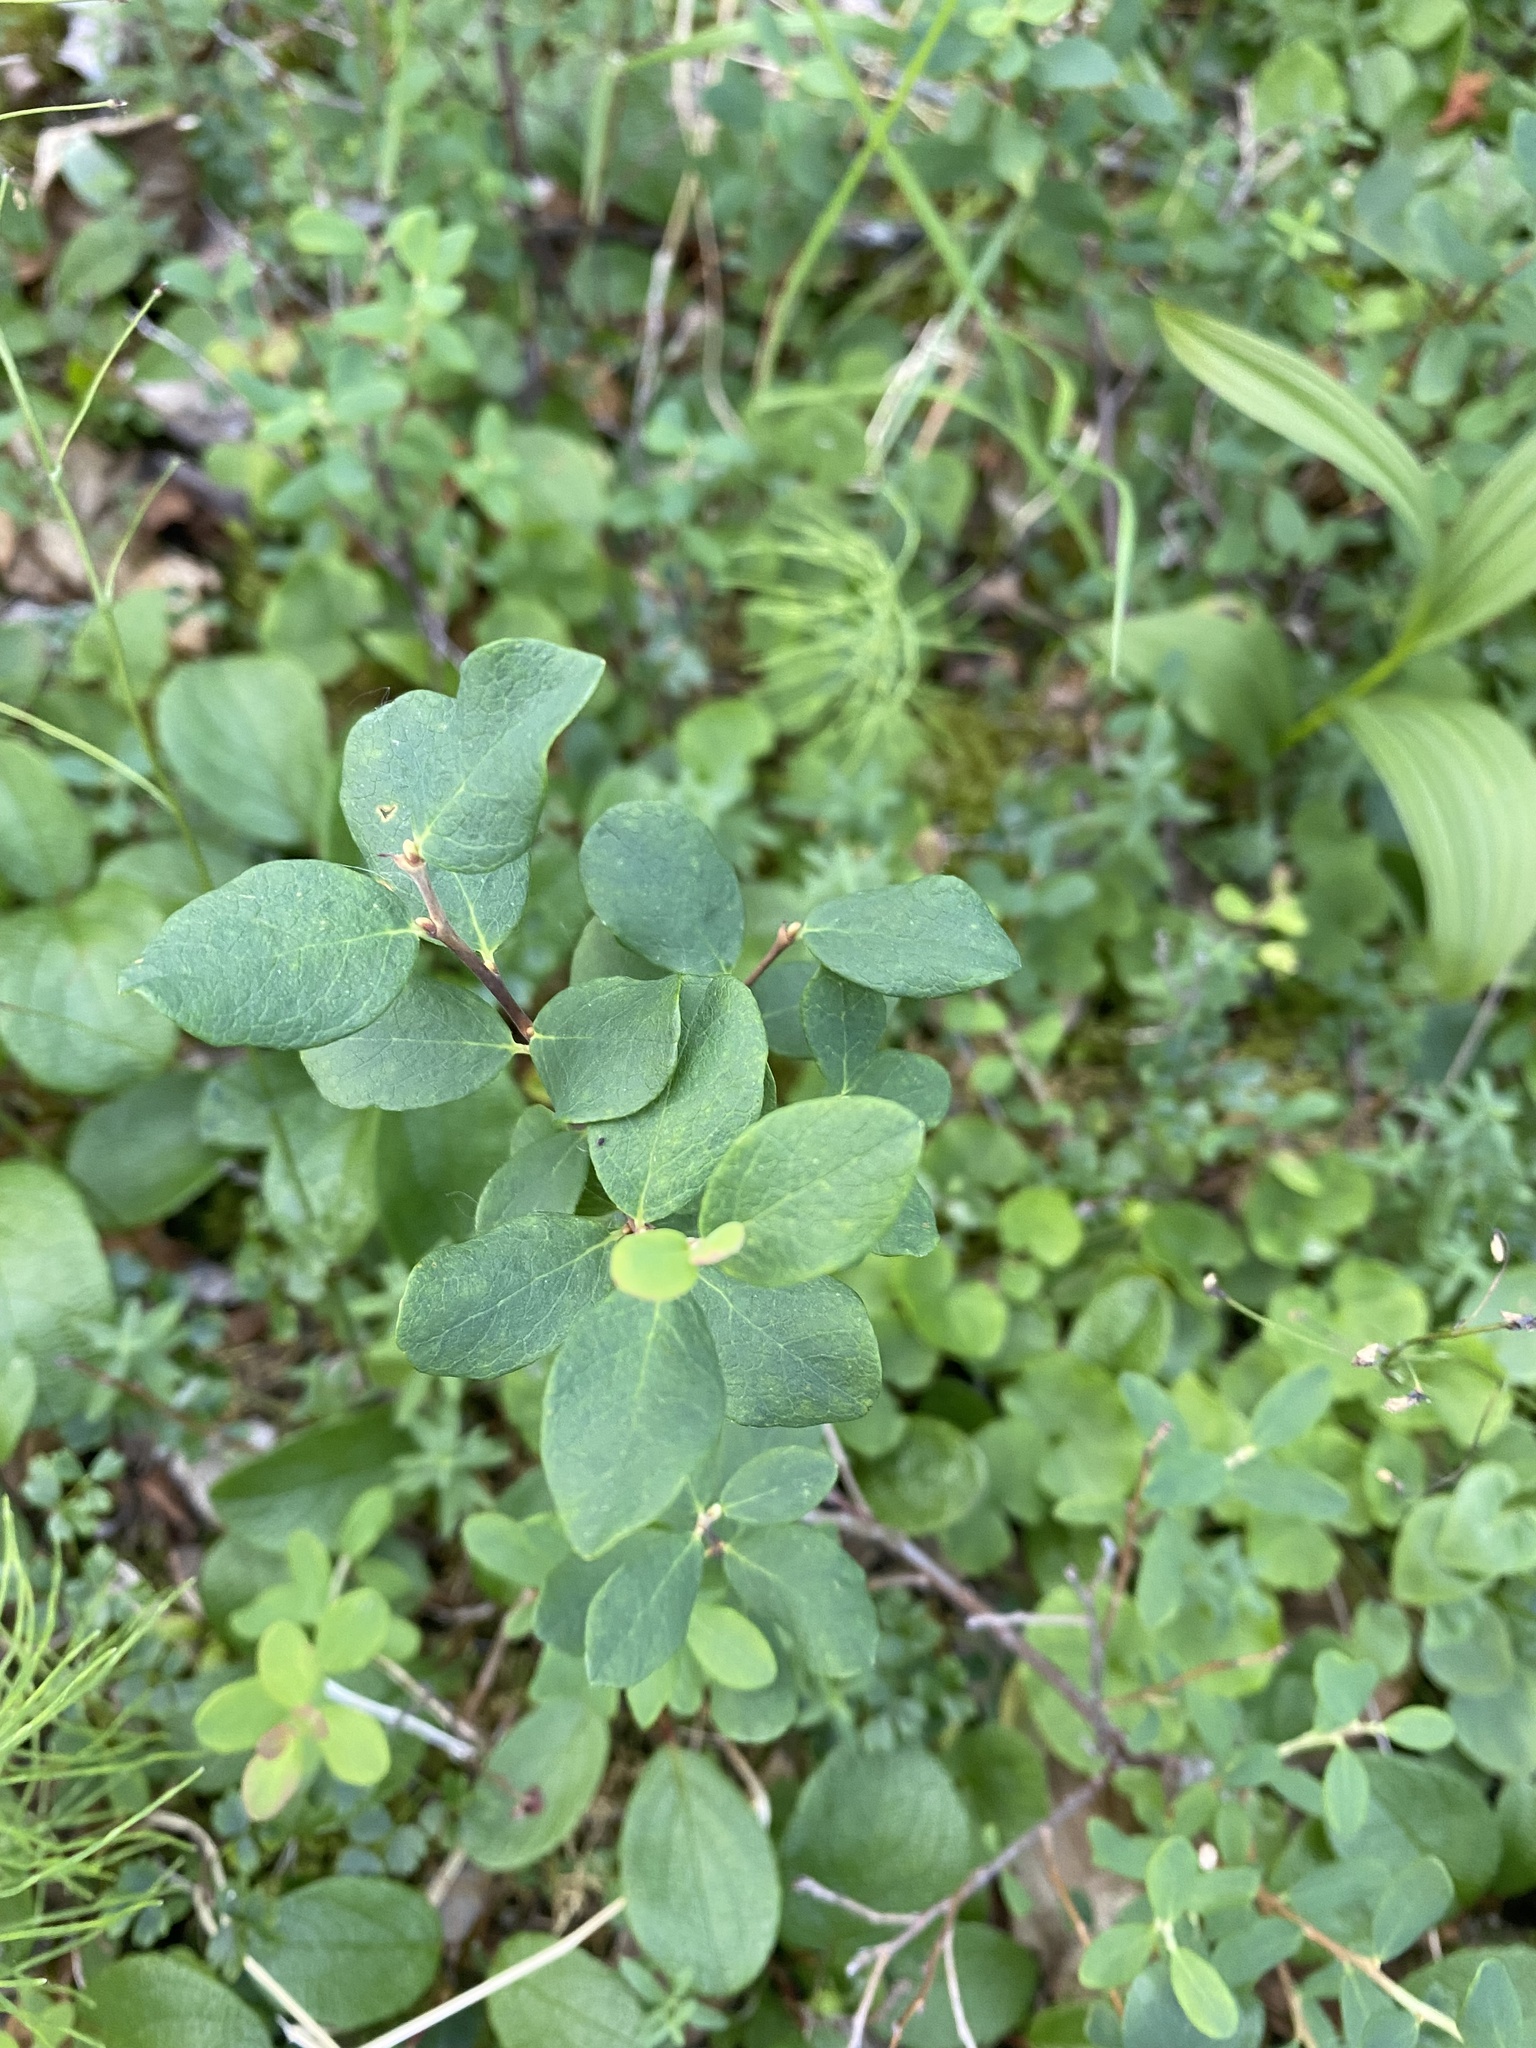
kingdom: Plantae
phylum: Tracheophyta
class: Magnoliopsida
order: Ericales
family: Ericaceae
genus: Vaccinium
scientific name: Vaccinium uliginosum
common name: Bog bilberry
